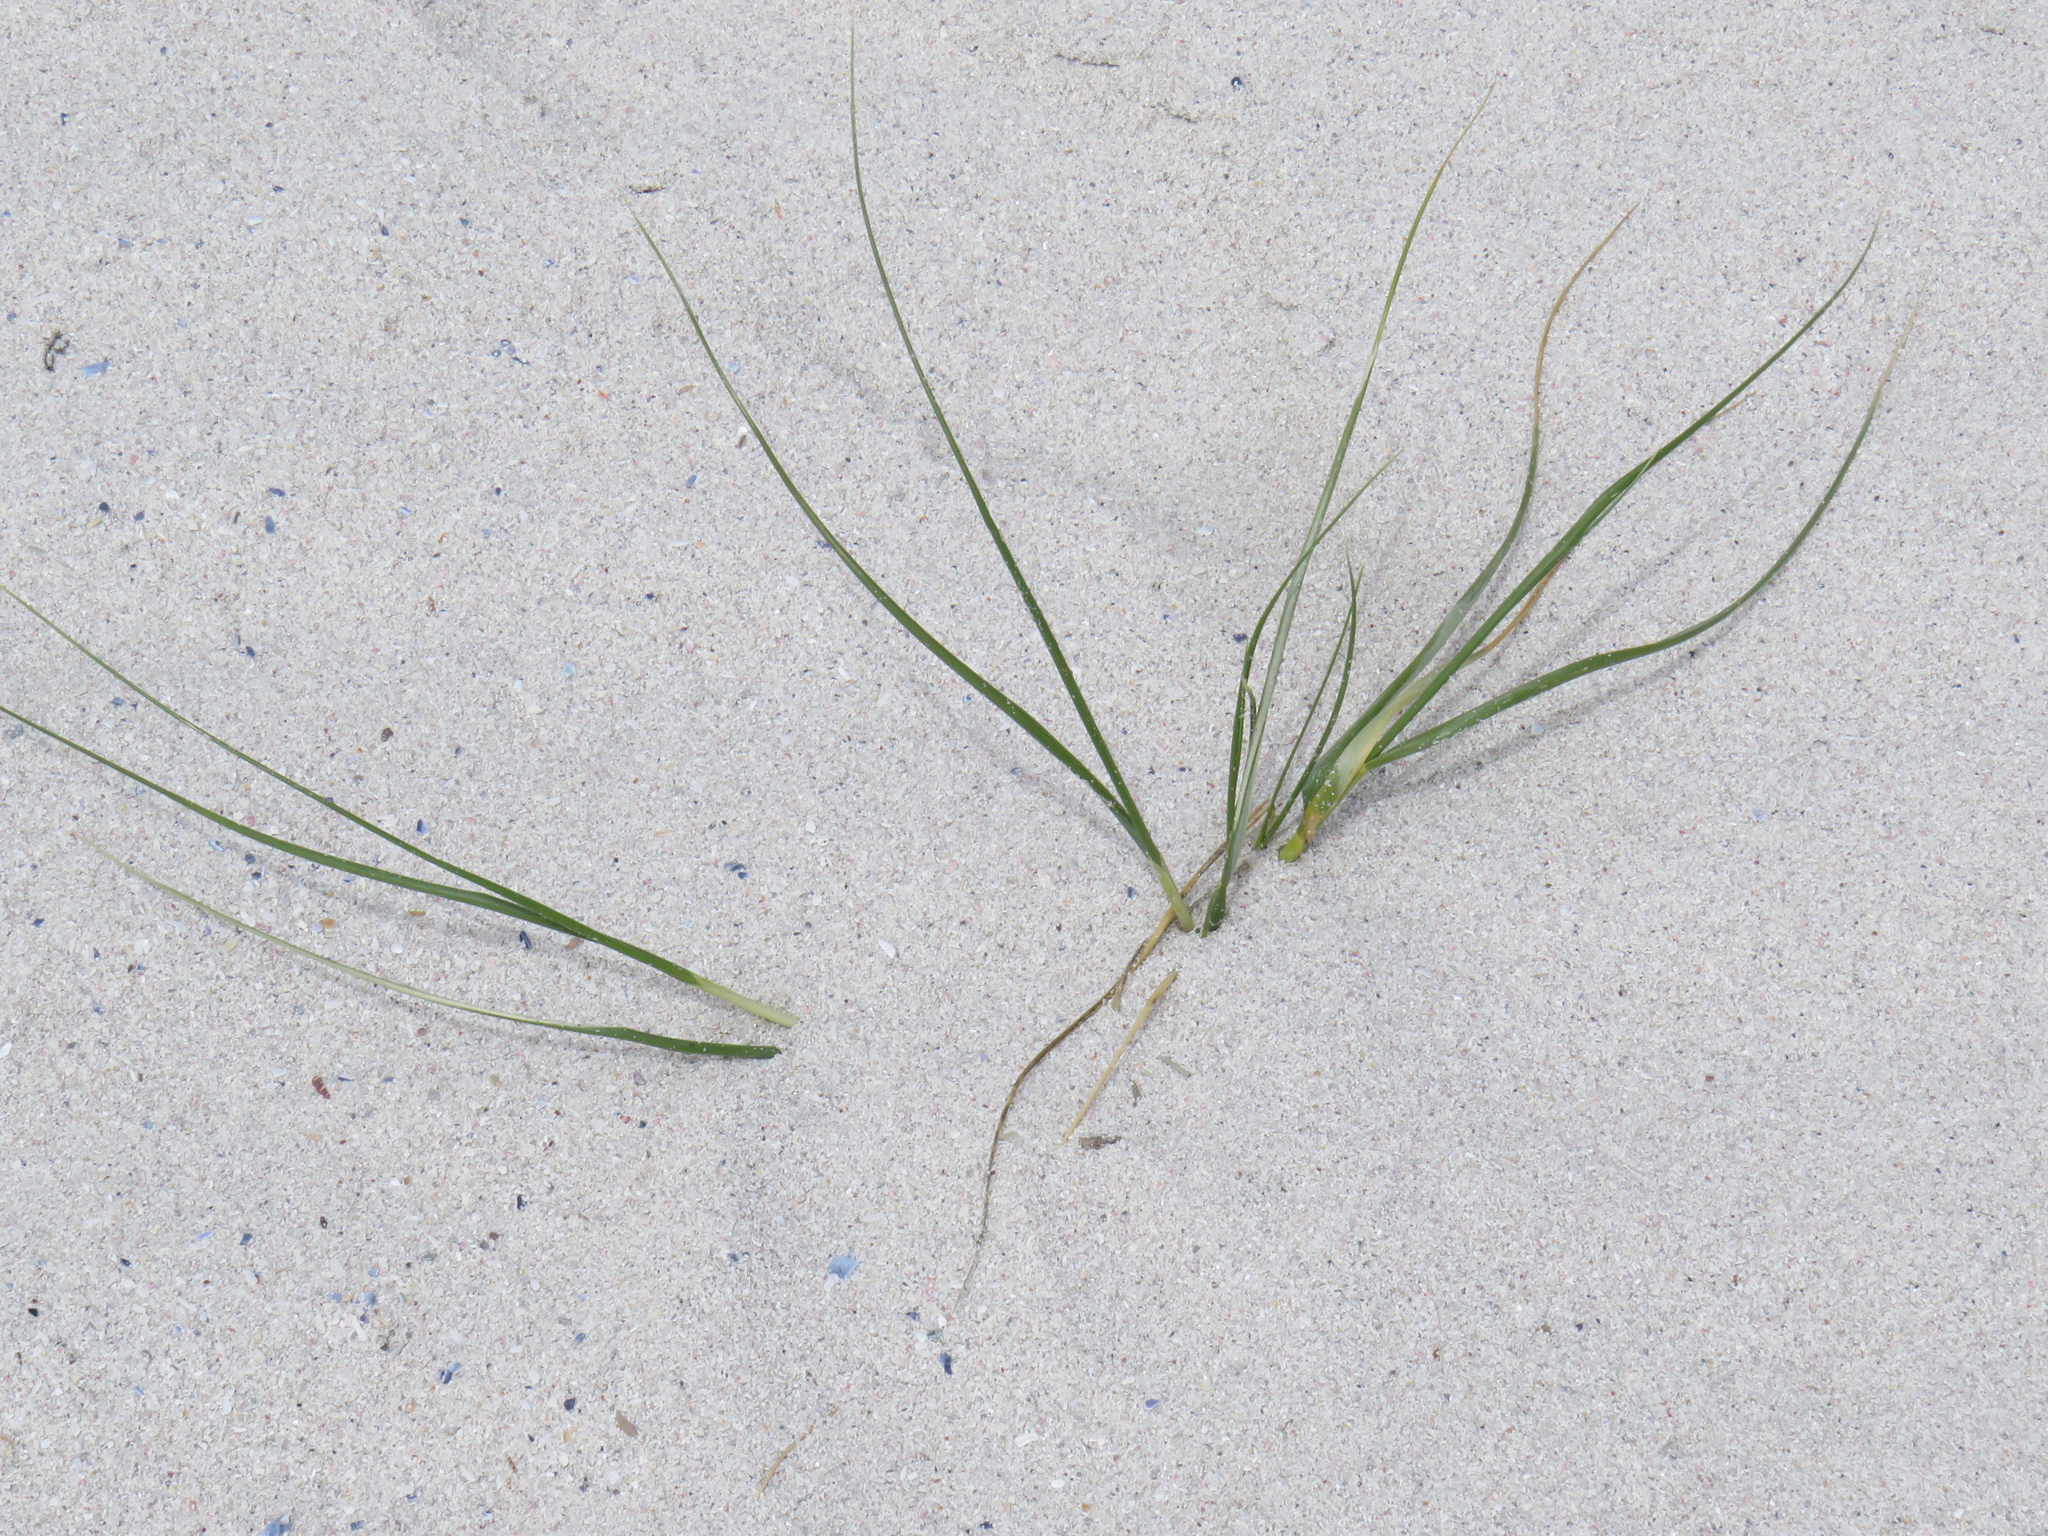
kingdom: Plantae
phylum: Tracheophyta
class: Liliopsida
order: Poales
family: Poaceae
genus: Thinopyrum
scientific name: Thinopyrum distichum
